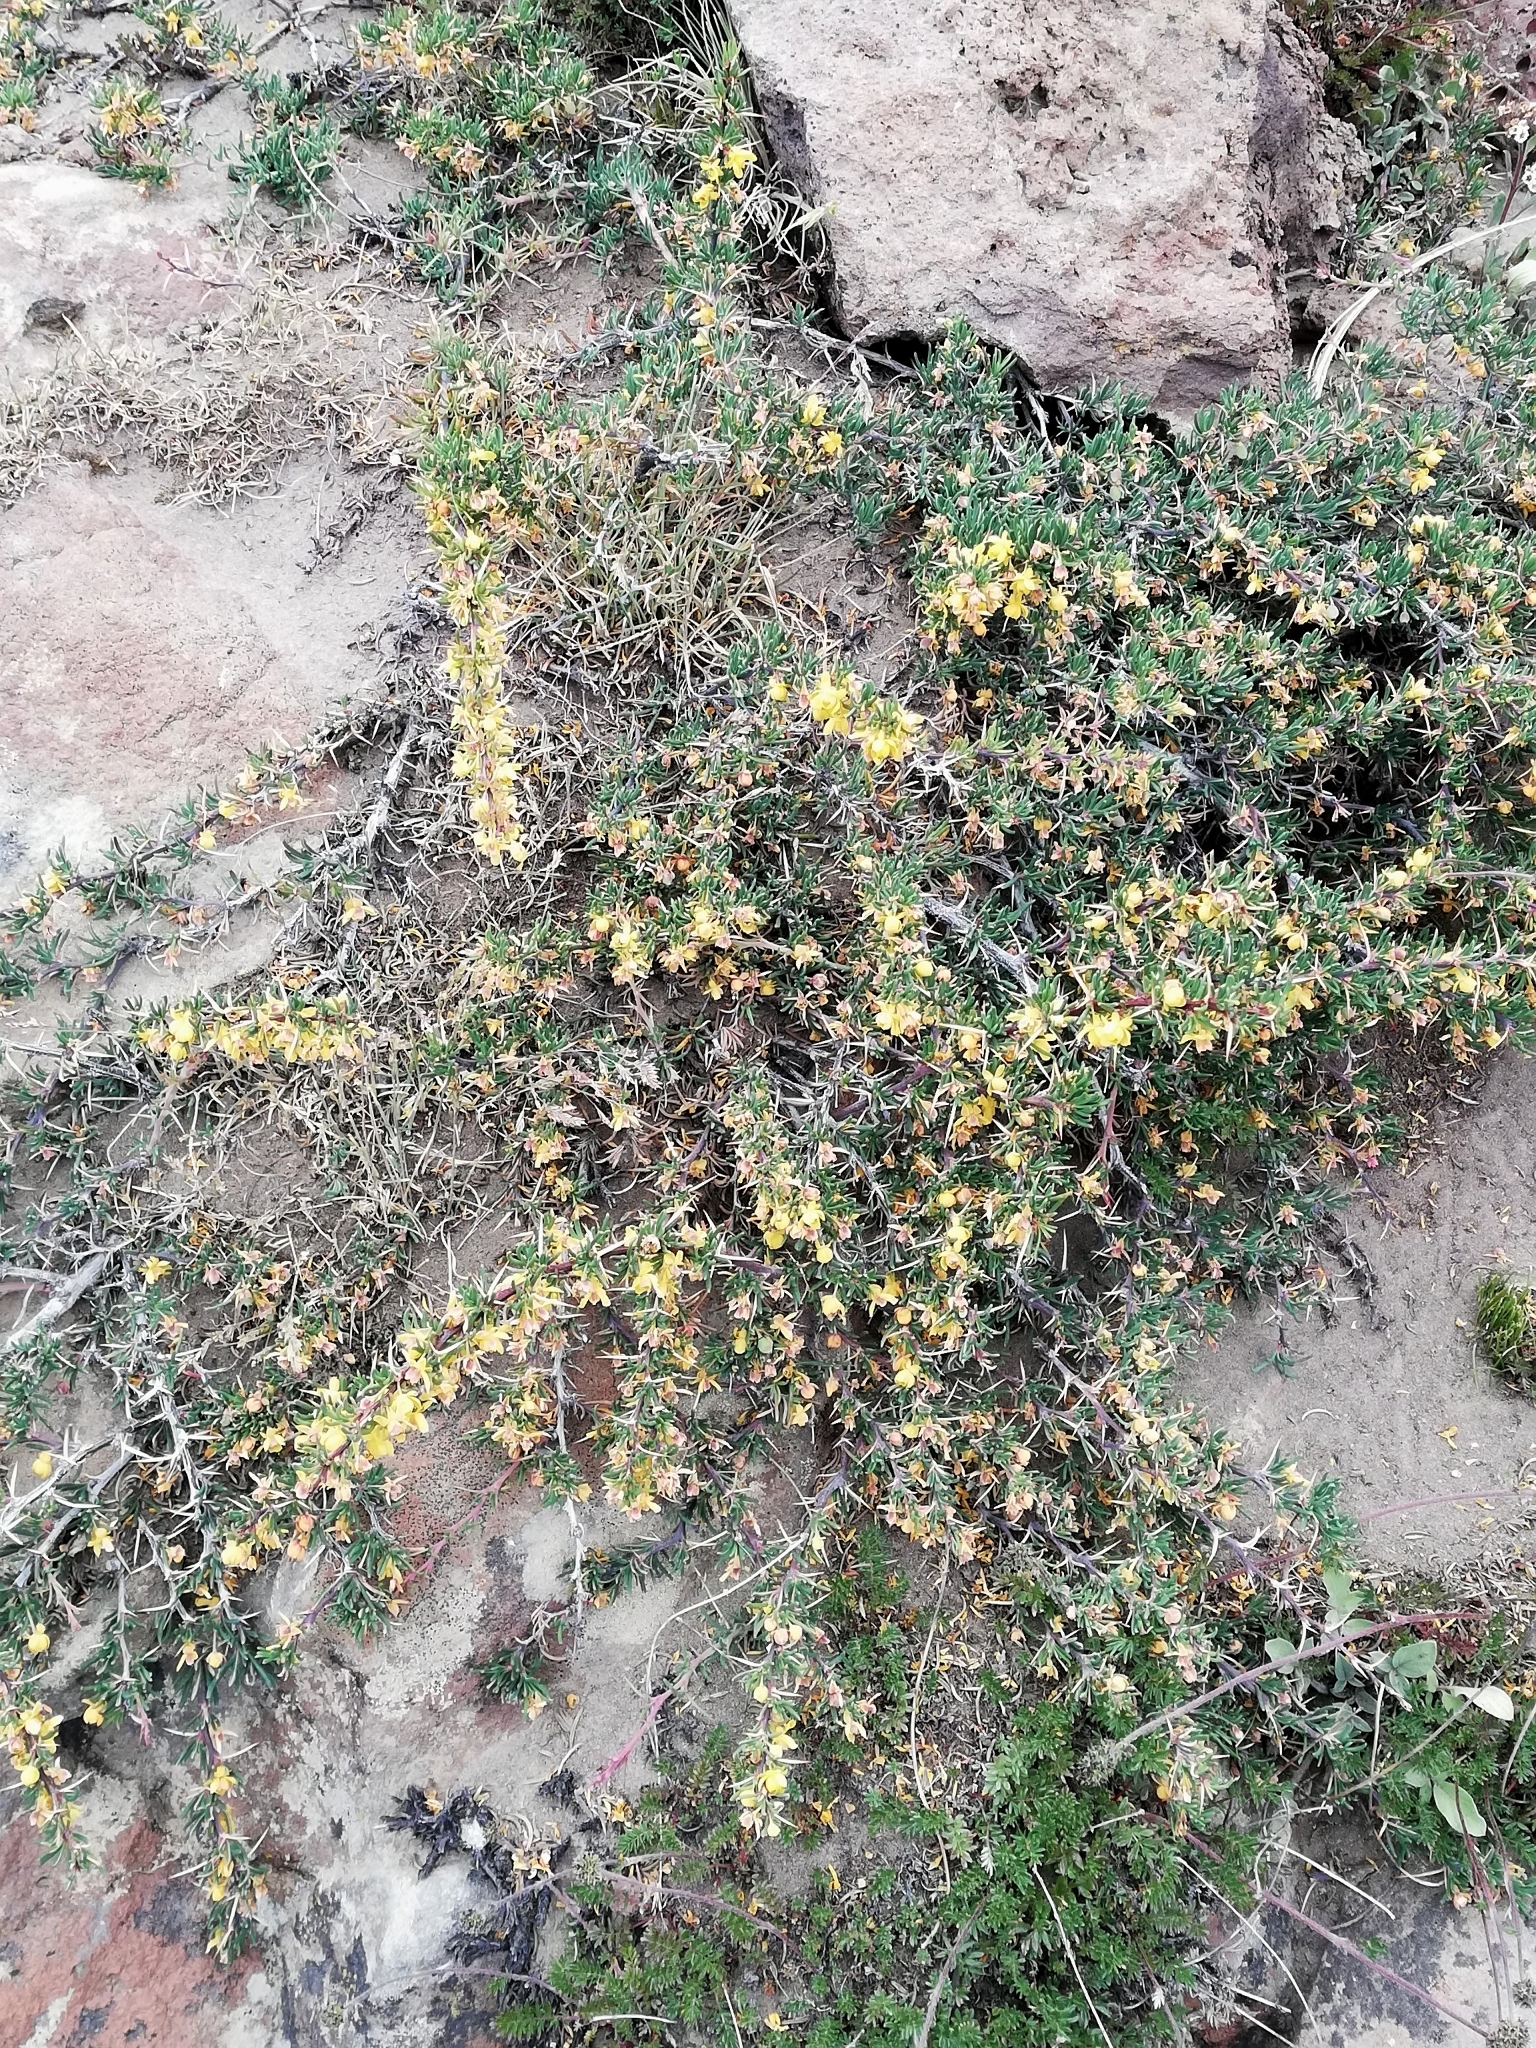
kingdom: Plantae
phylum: Tracheophyta
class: Magnoliopsida
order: Ranunculales
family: Berberidaceae
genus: Berberis
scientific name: Berberis empetrifolia
